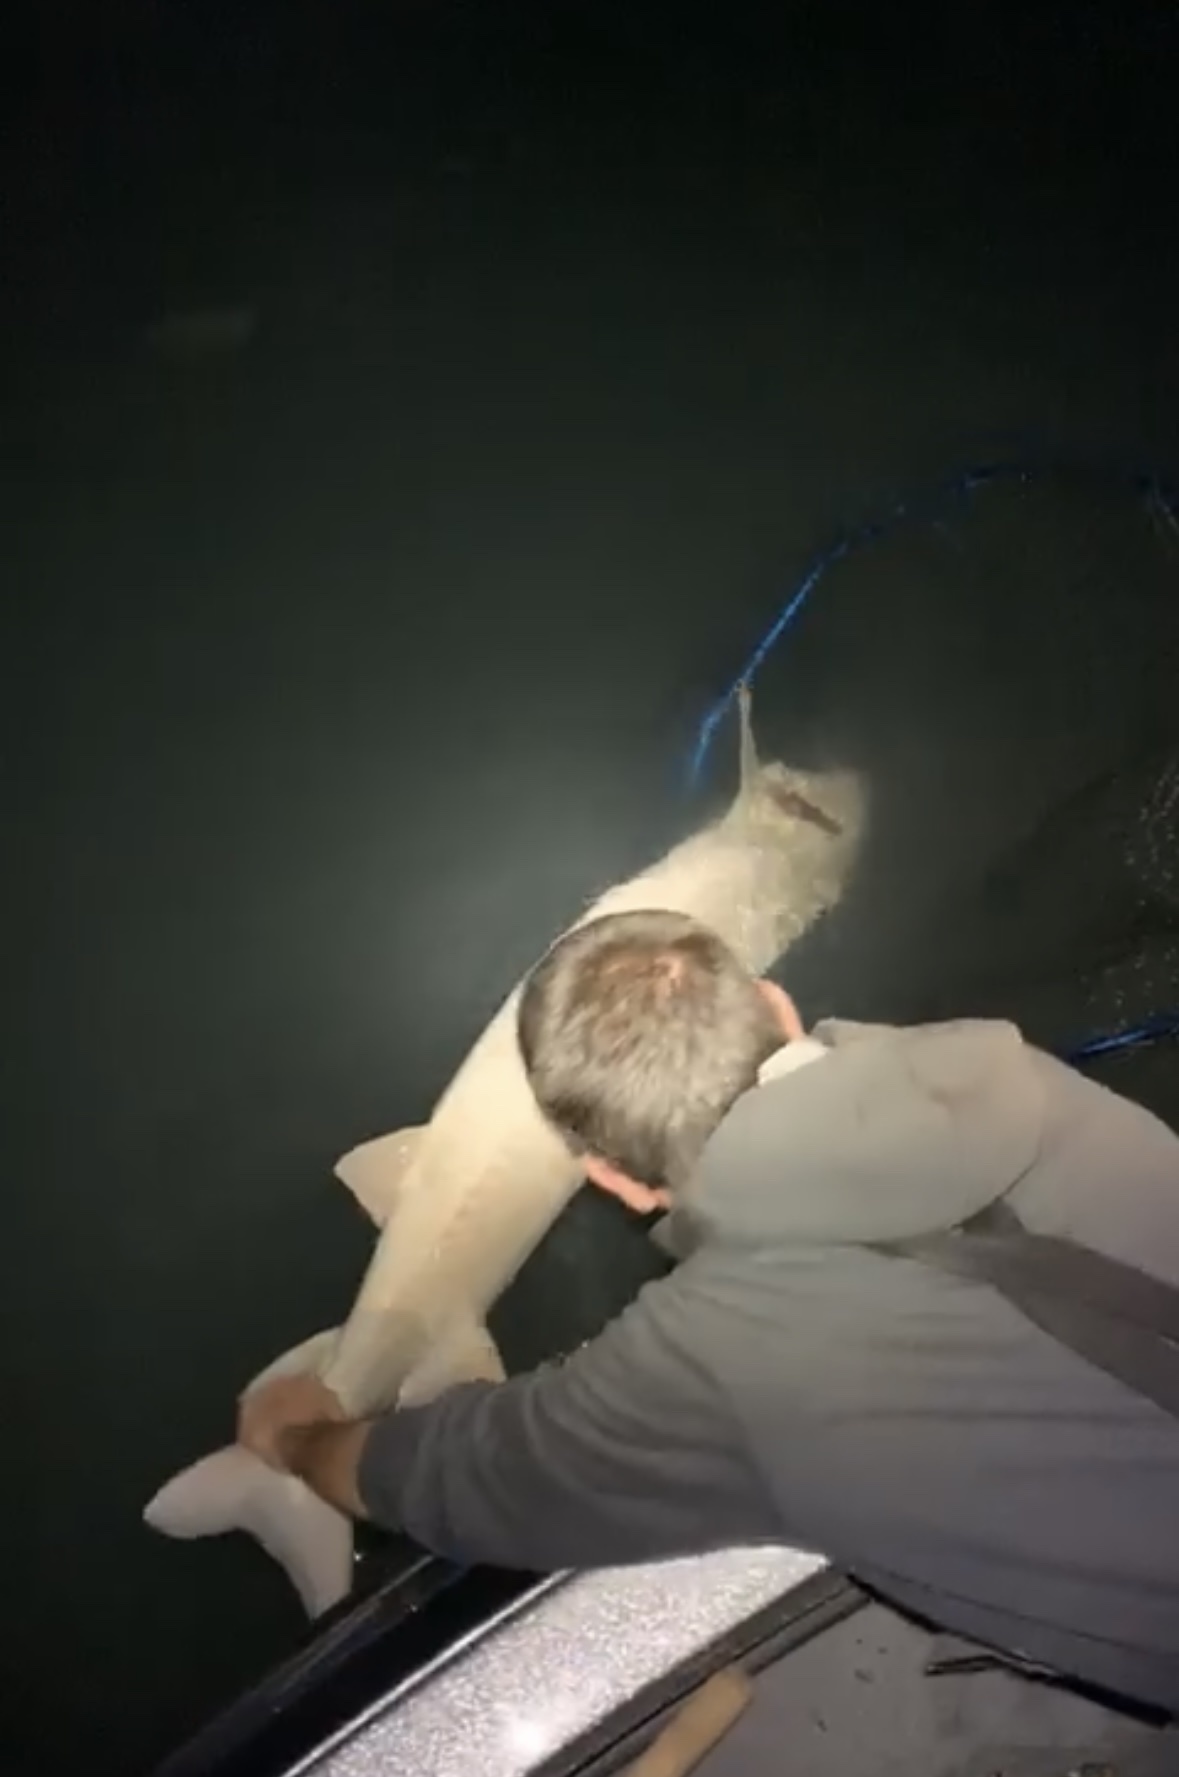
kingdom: Animalia
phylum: Chordata
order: Acipenseriformes
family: Acipenseridae
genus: Acipenser
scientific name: Acipenser fulvescens
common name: Lake sturgeon
